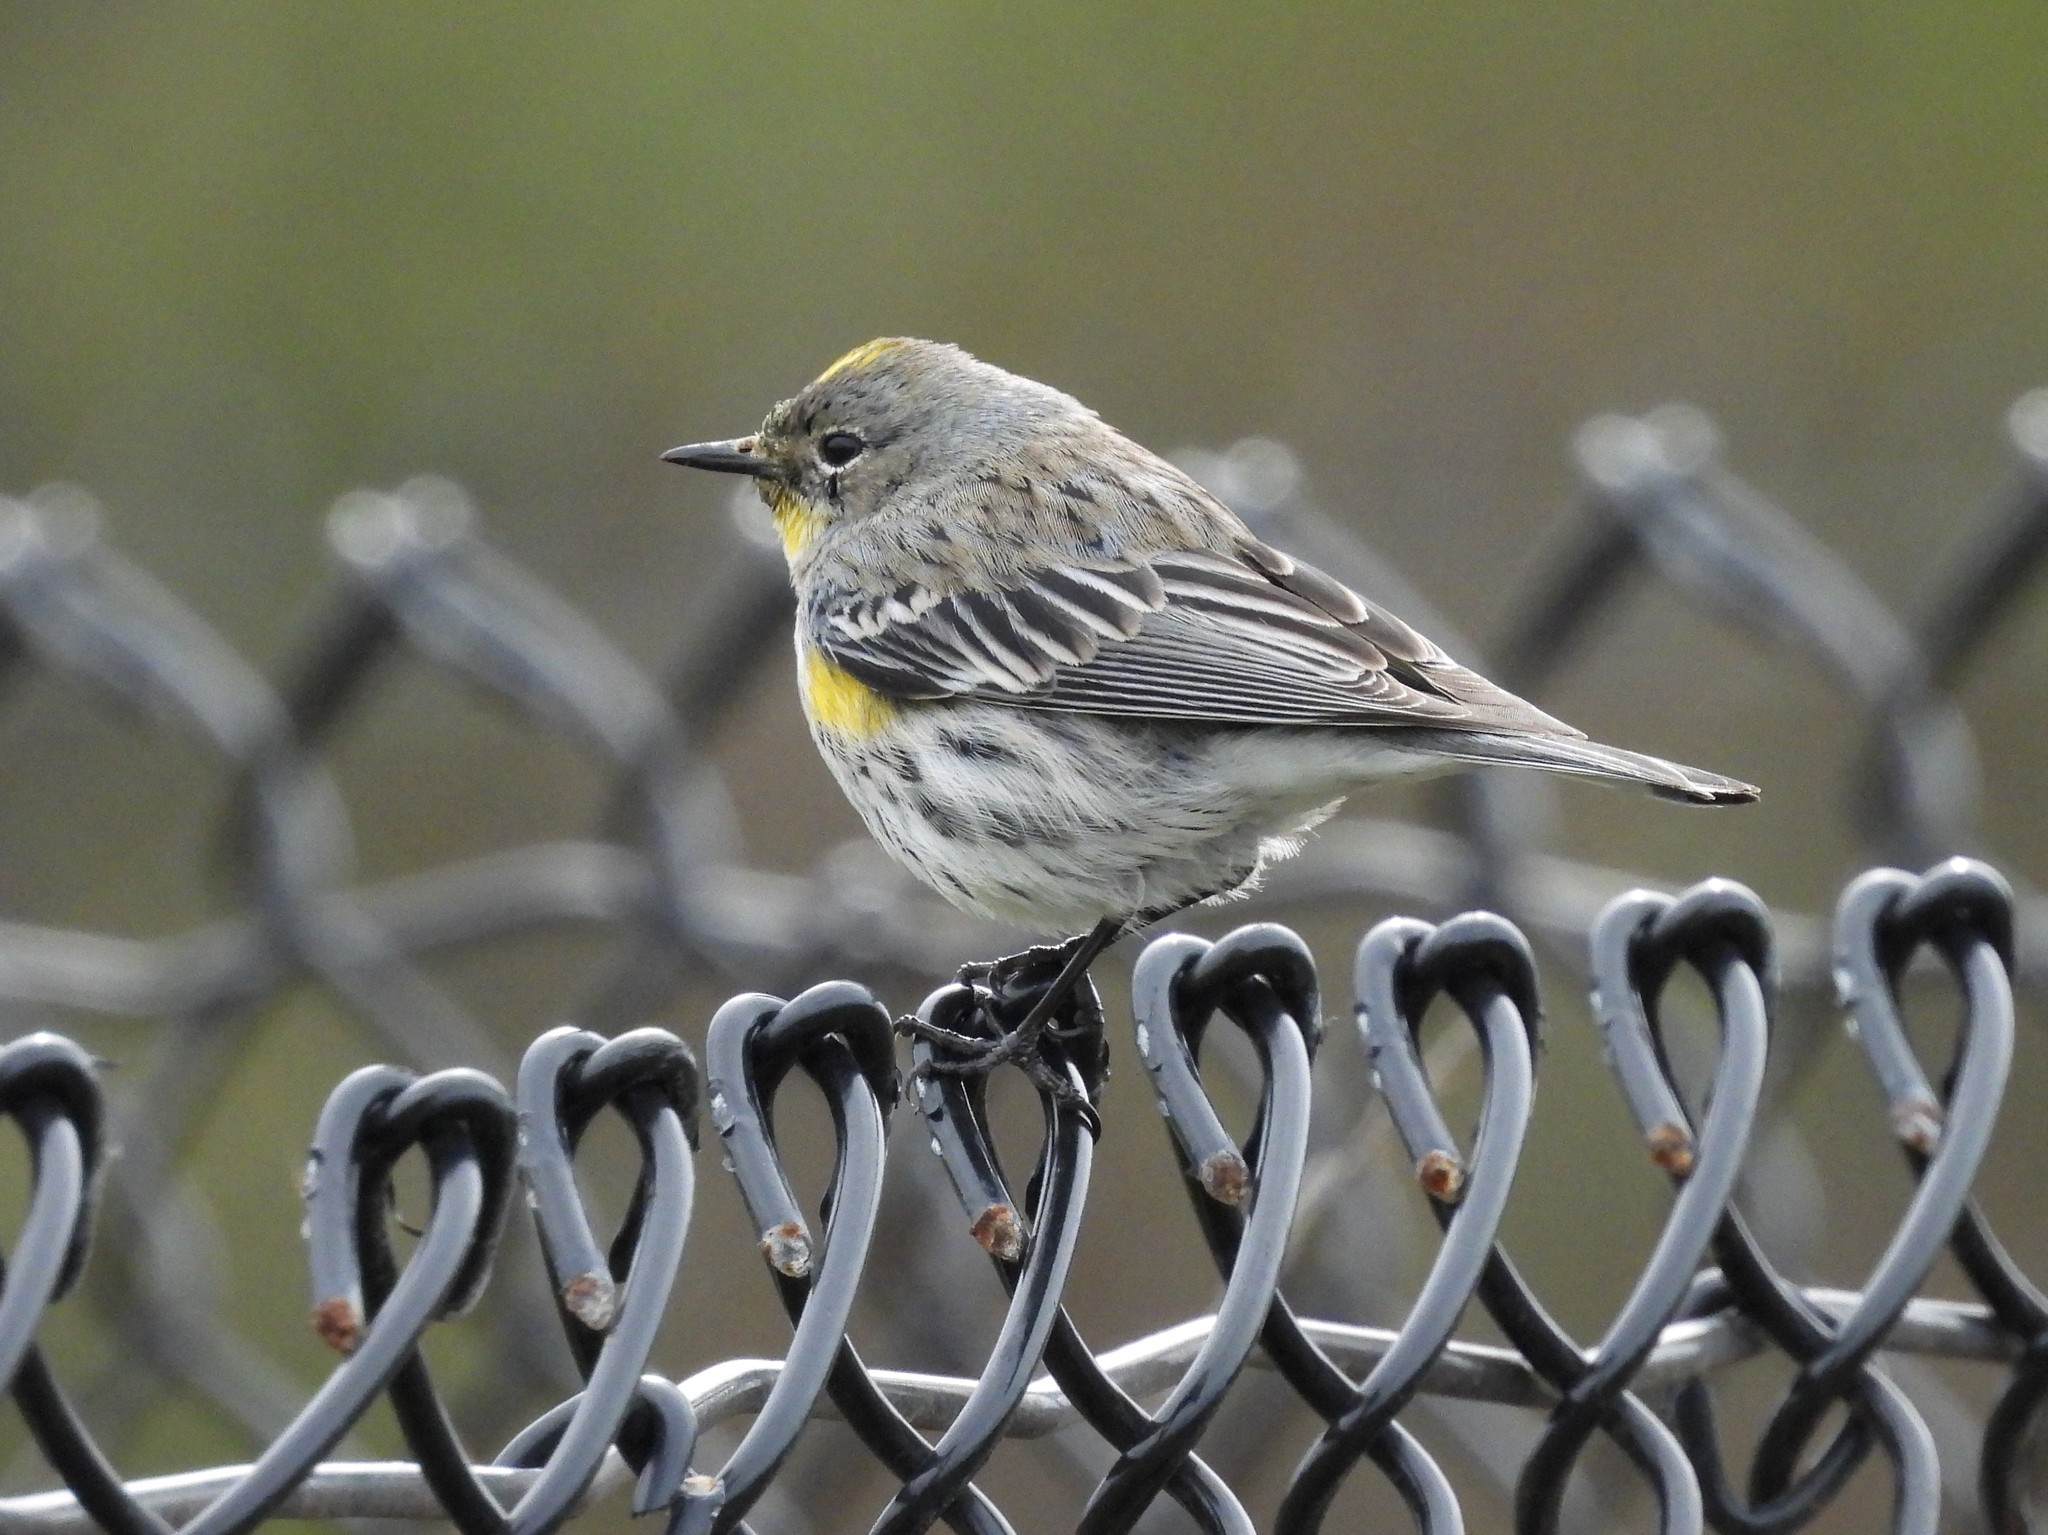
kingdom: Animalia
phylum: Chordata
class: Aves
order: Passeriformes
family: Parulidae
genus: Setophaga
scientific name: Setophaga coronata
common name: Myrtle warbler
